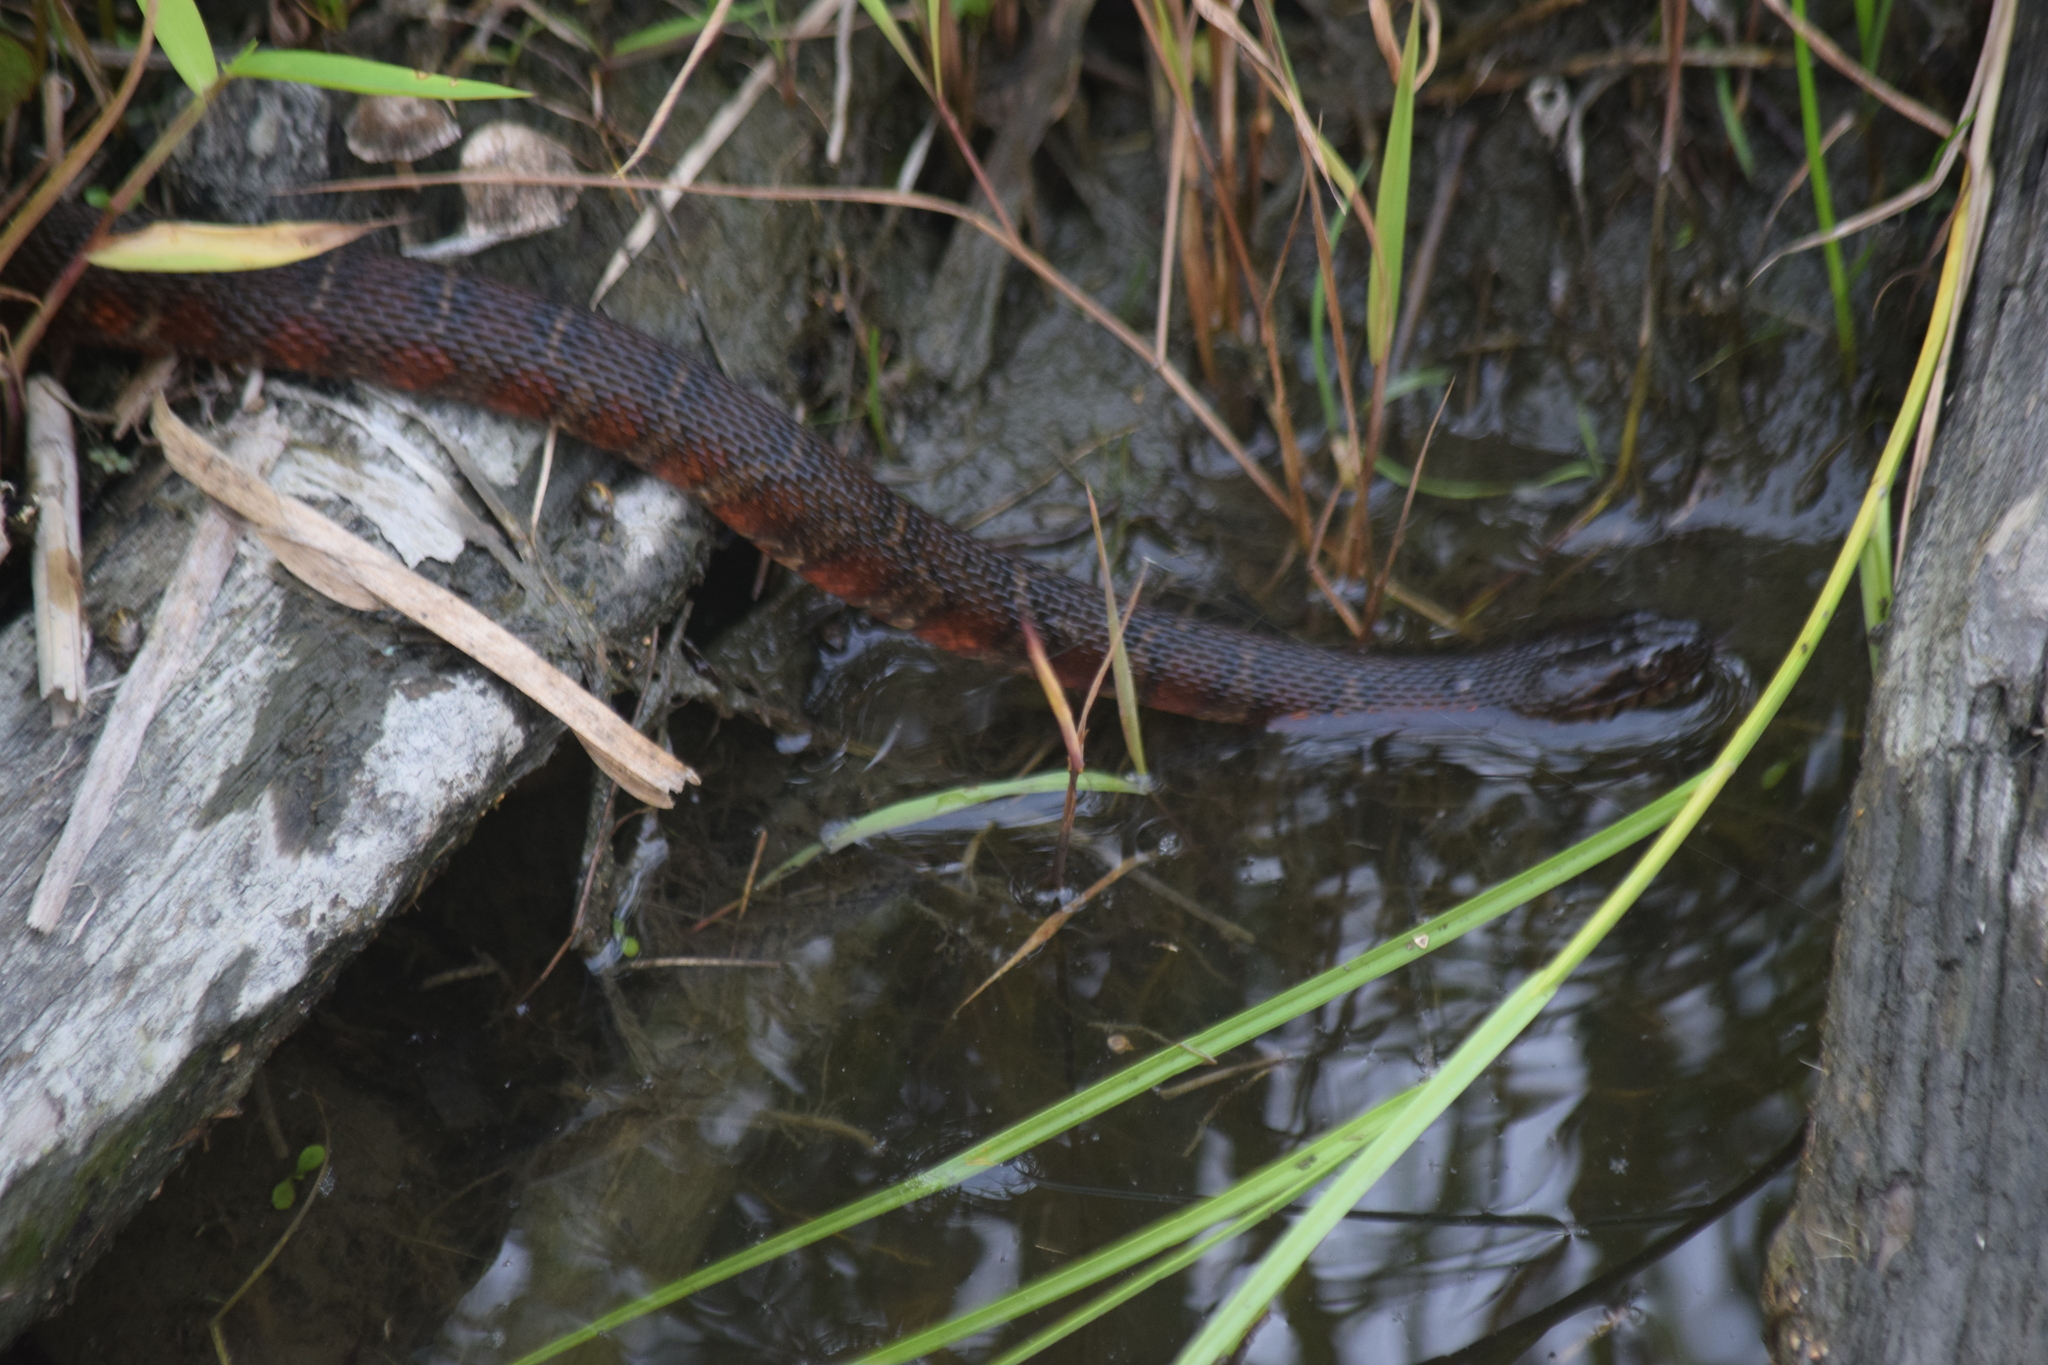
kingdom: Animalia
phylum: Chordata
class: Squamata
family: Colubridae
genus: Nerodia
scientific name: Nerodia sipedon
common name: Northern water snake
